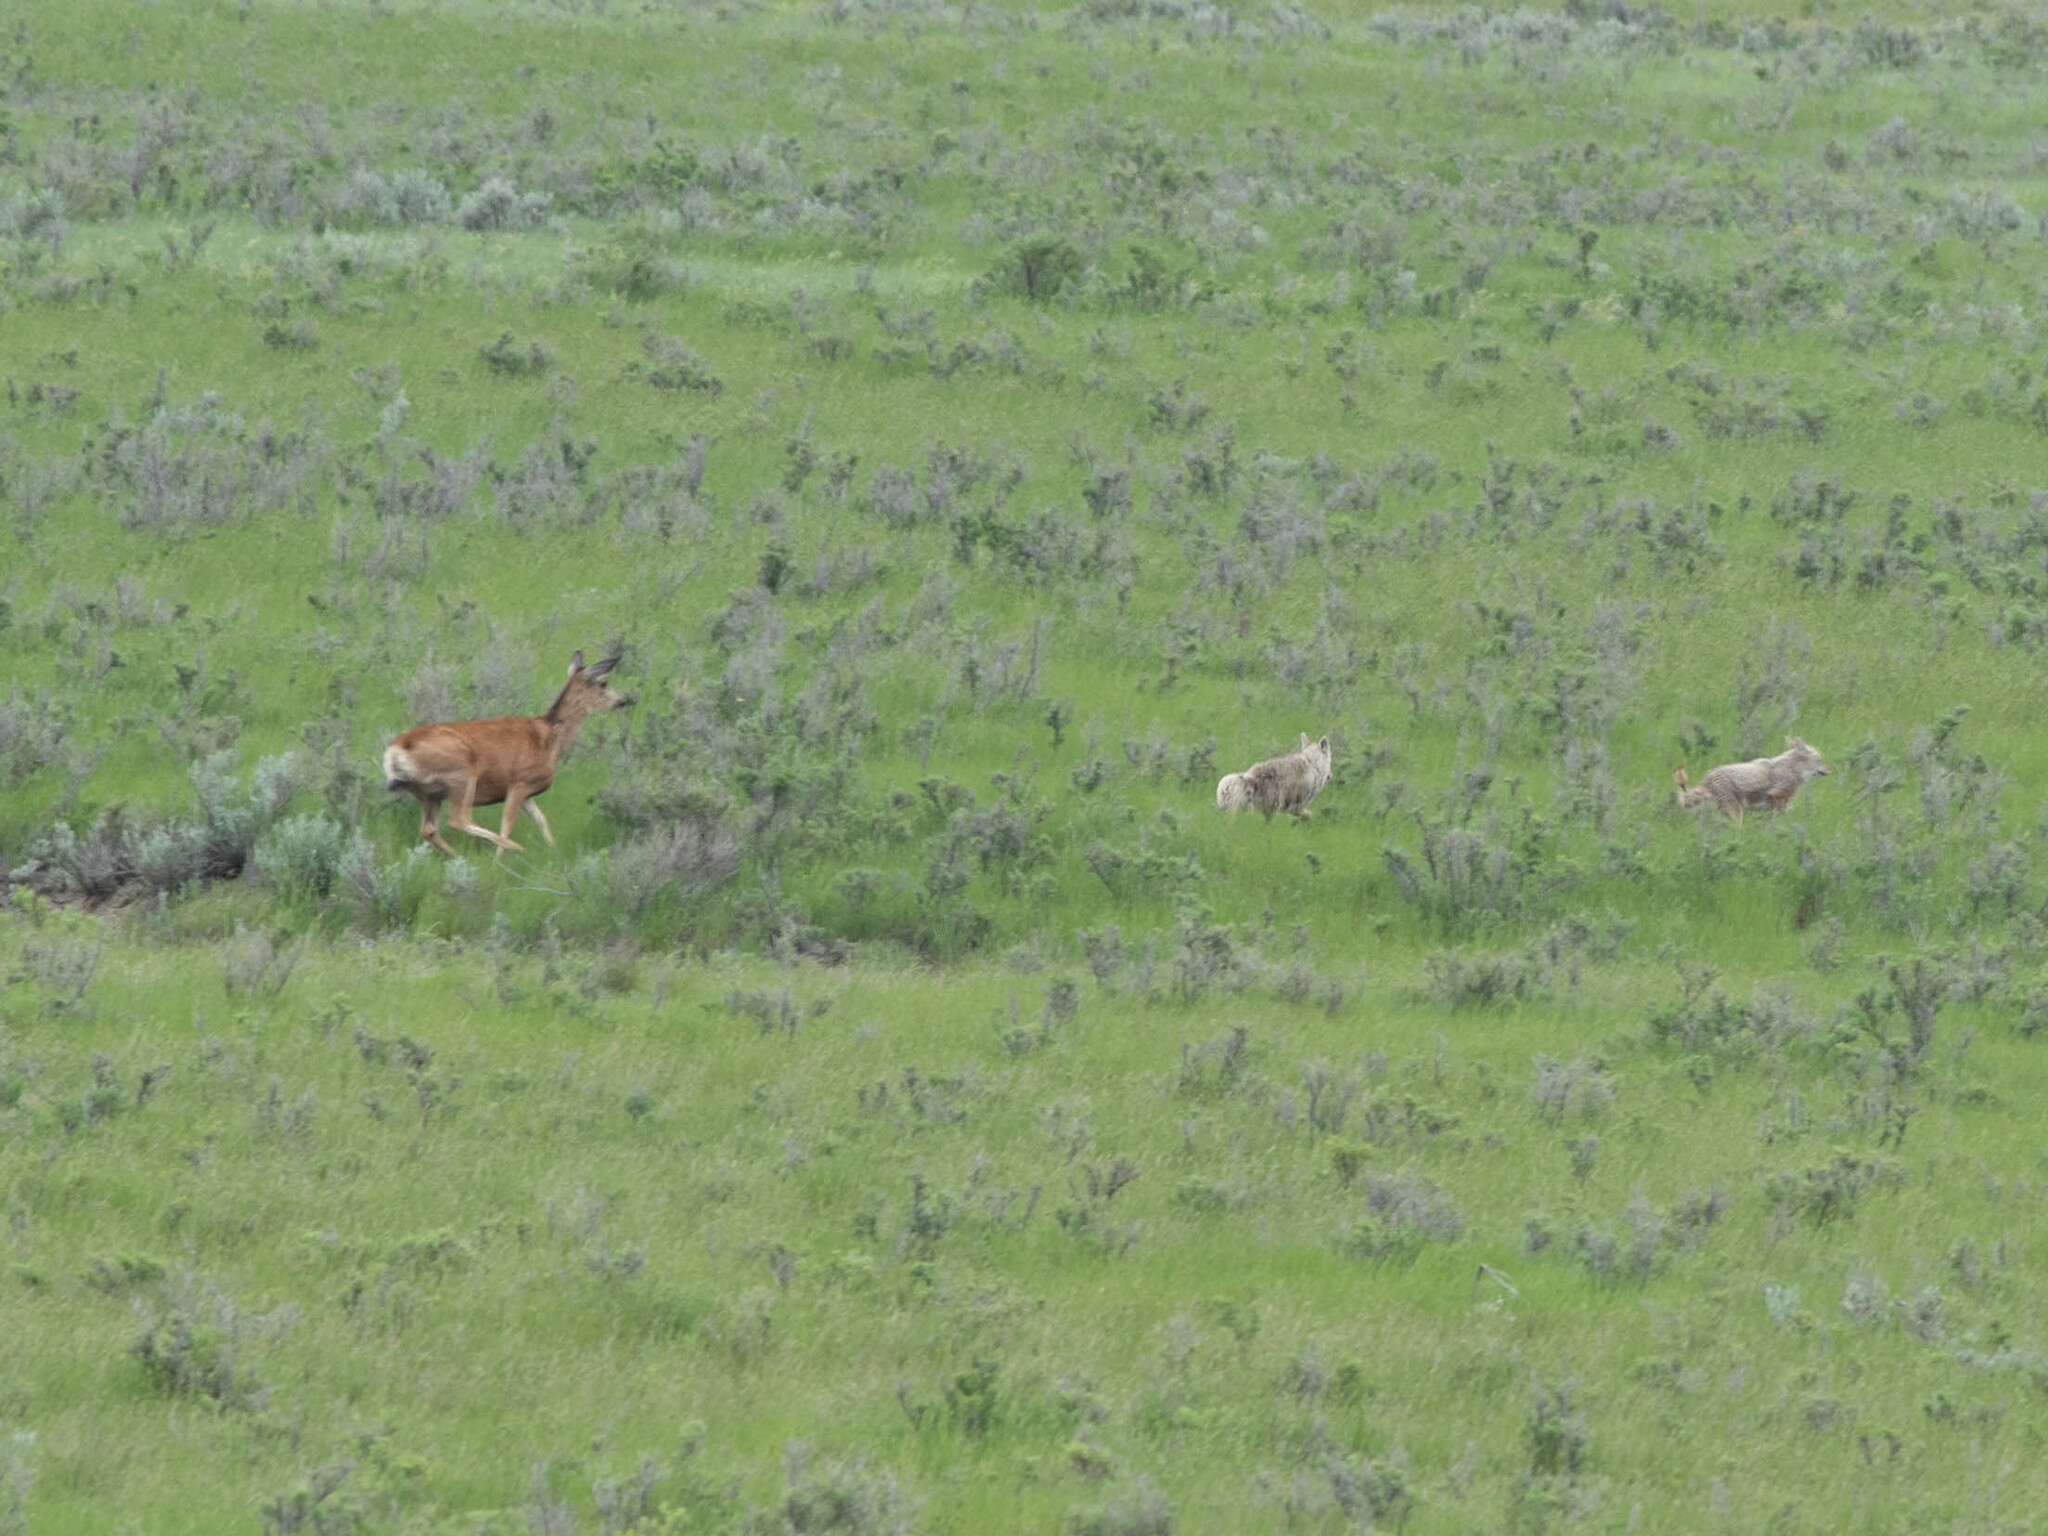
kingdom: Animalia
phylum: Chordata
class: Mammalia
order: Carnivora
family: Canidae
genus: Canis
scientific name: Canis latrans
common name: Coyote
